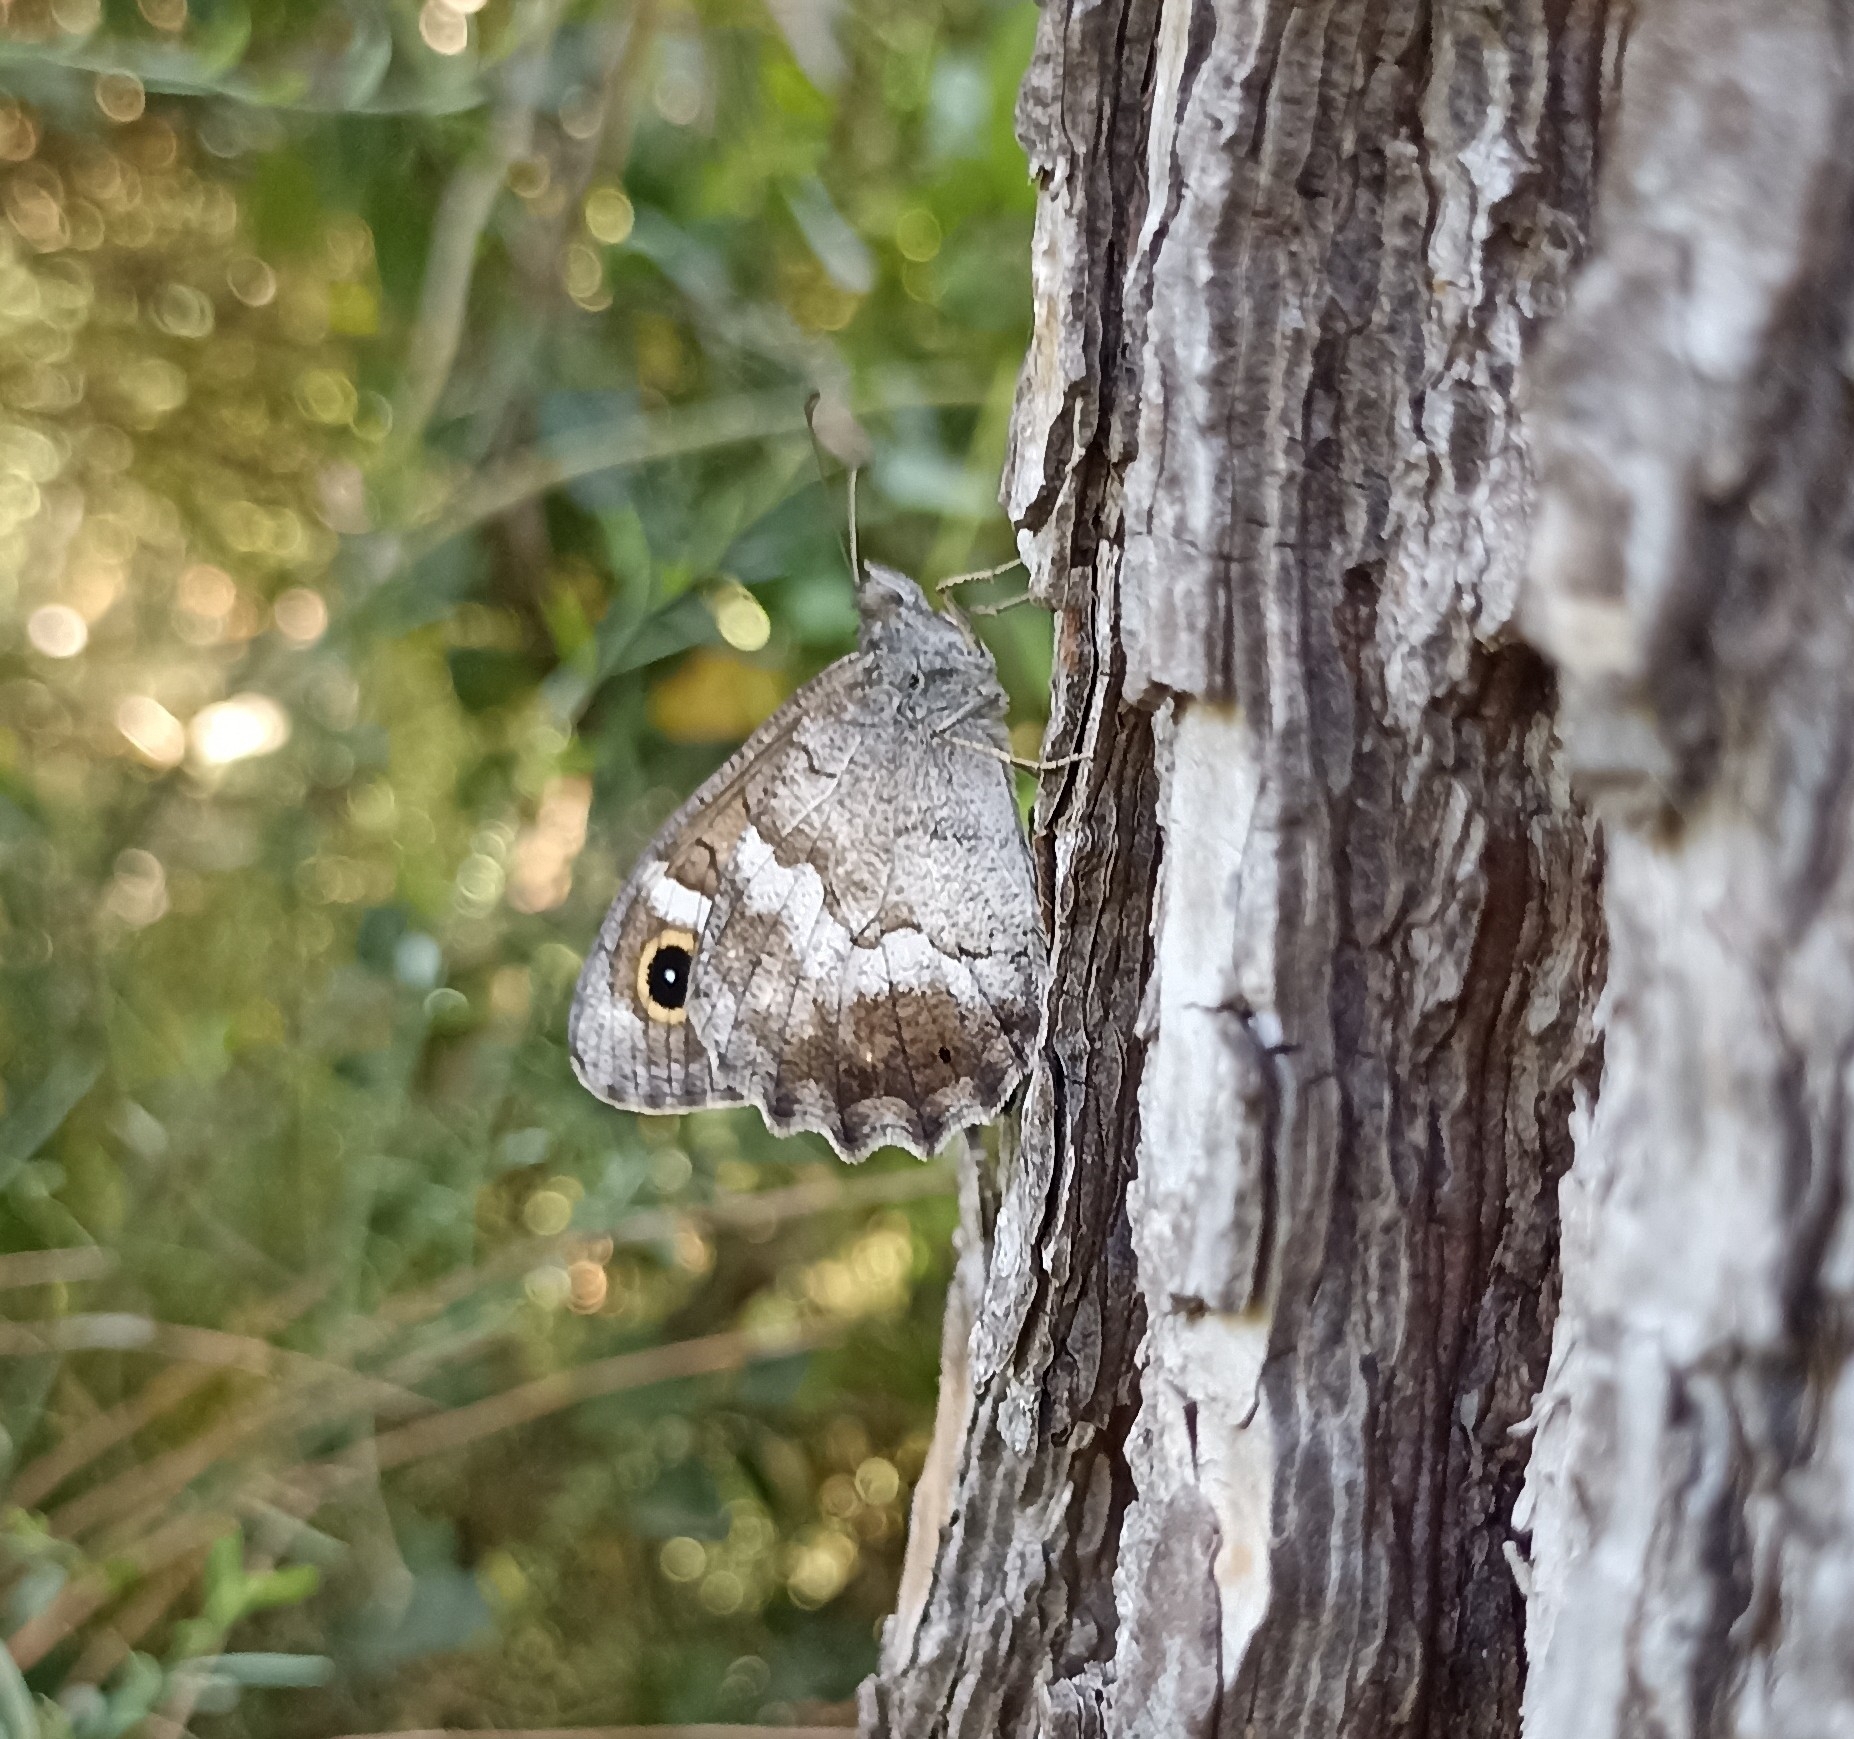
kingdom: Animalia
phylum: Arthropoda
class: Insecta
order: Lepidoptera
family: Nymphalidae
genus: Hipparchia
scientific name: Hipparchia statilinus
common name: Tree grayling
